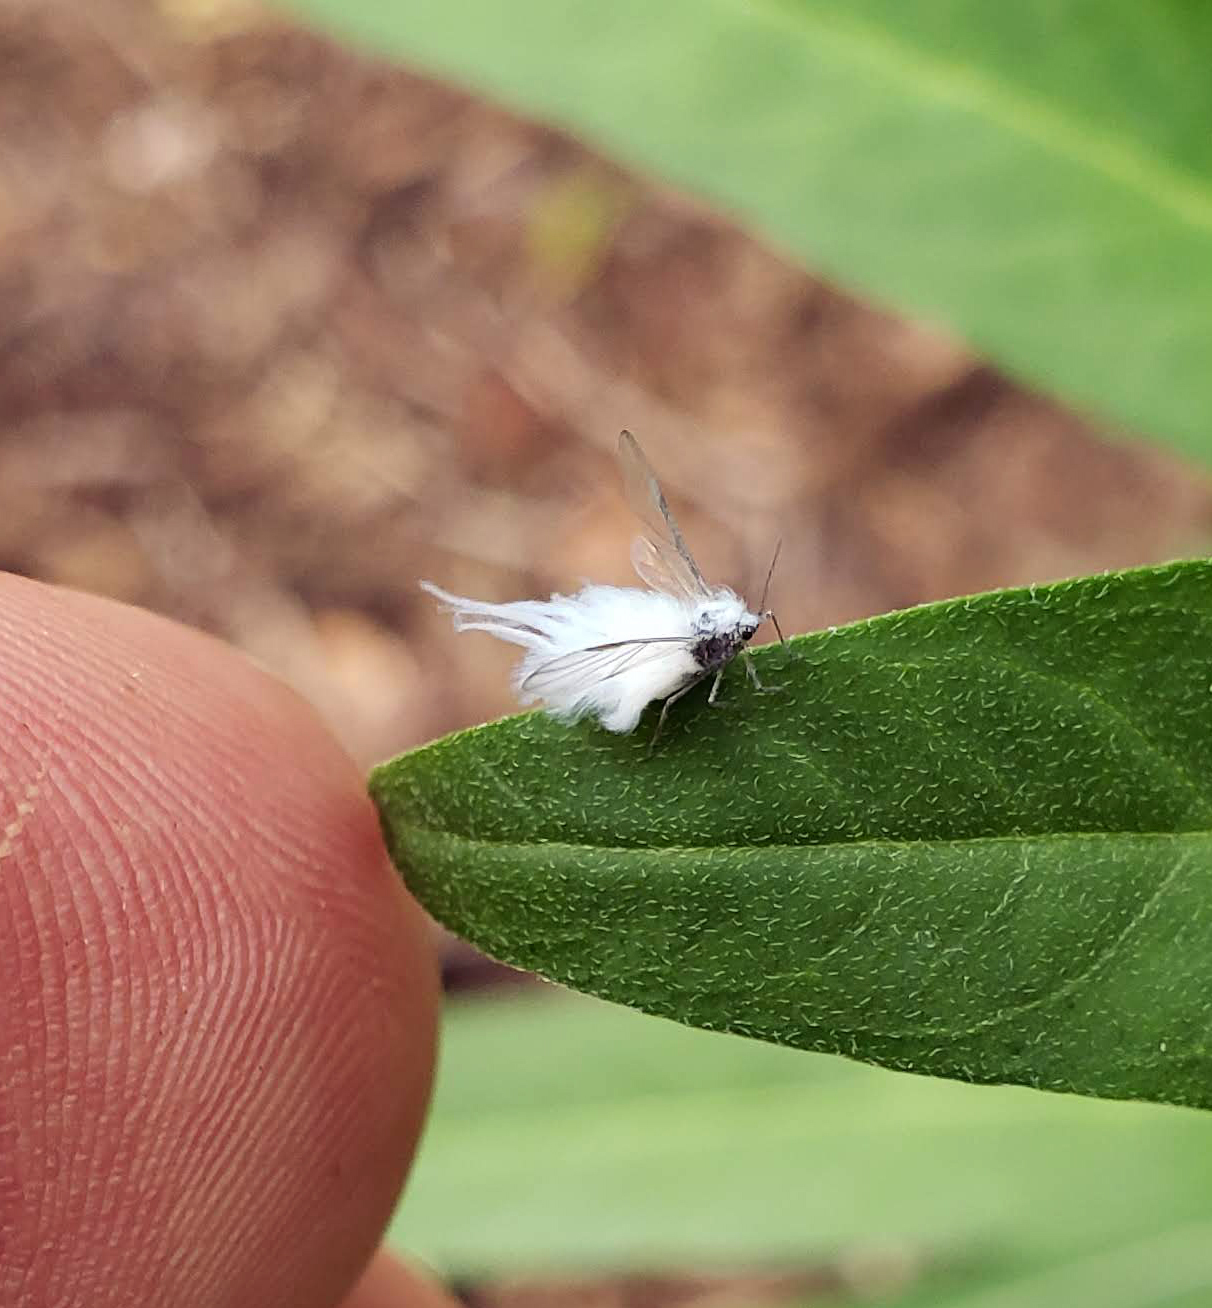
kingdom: Animalia
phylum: Arthropoda
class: Insecta
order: Hemiptera
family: Eriosomatidae
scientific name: Eriosomatidae
